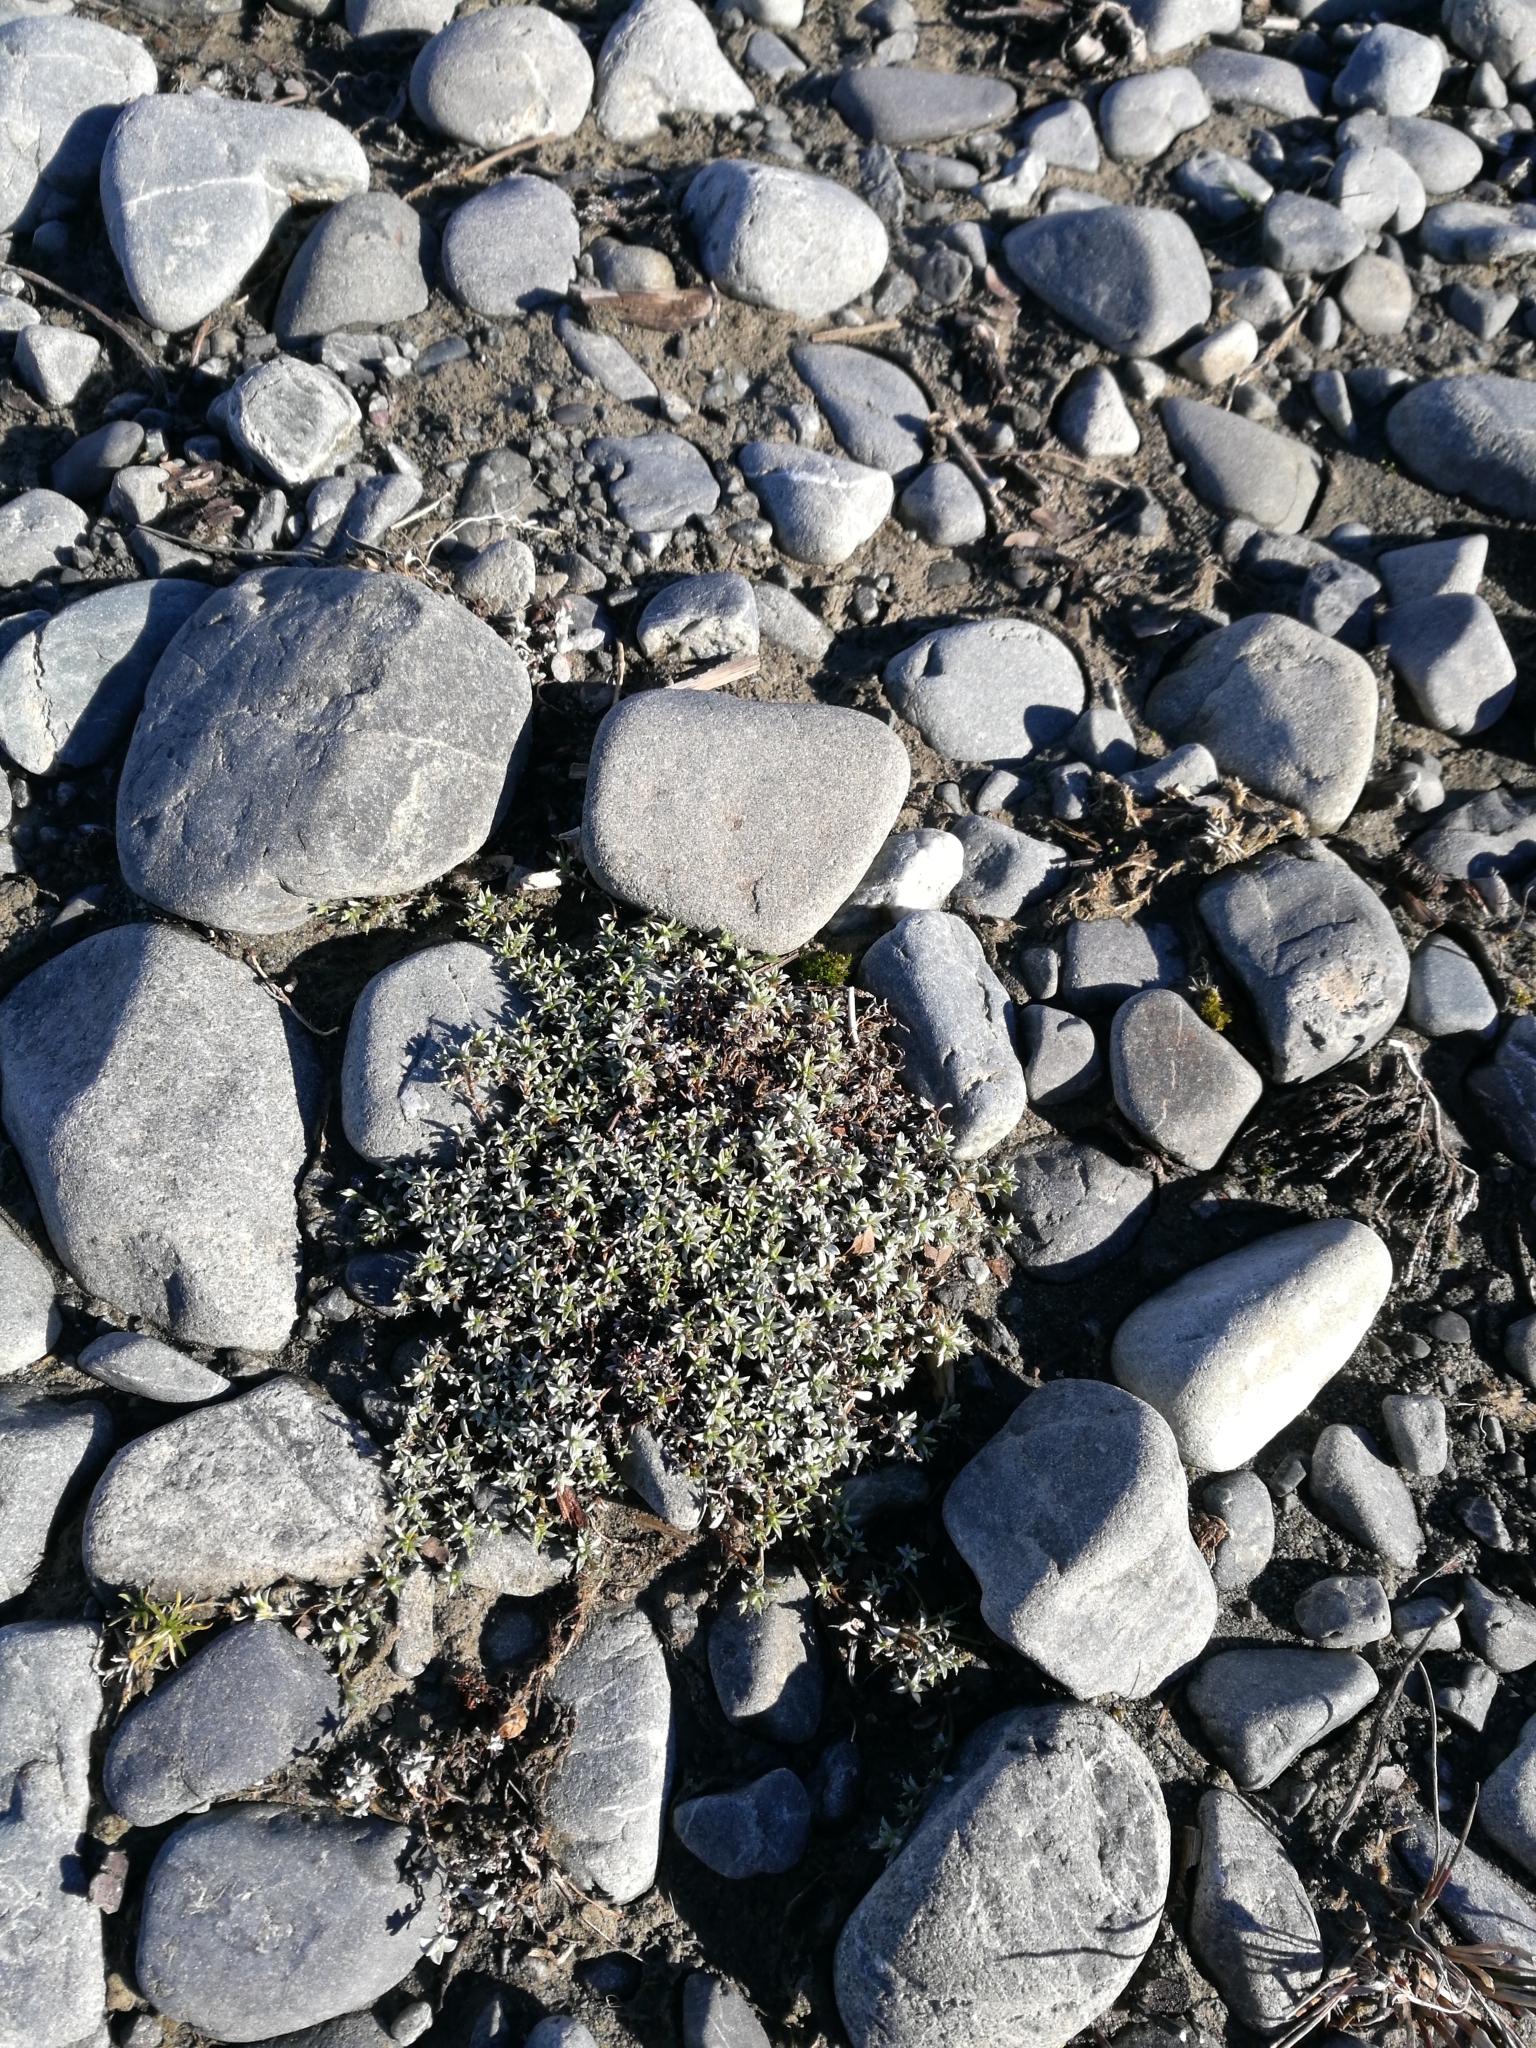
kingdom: Plantae
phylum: Tracheophyta
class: Magnoliopsida
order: Asterales
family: Asteraceae
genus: Raoulia
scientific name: Raoulia tenuicaulis
